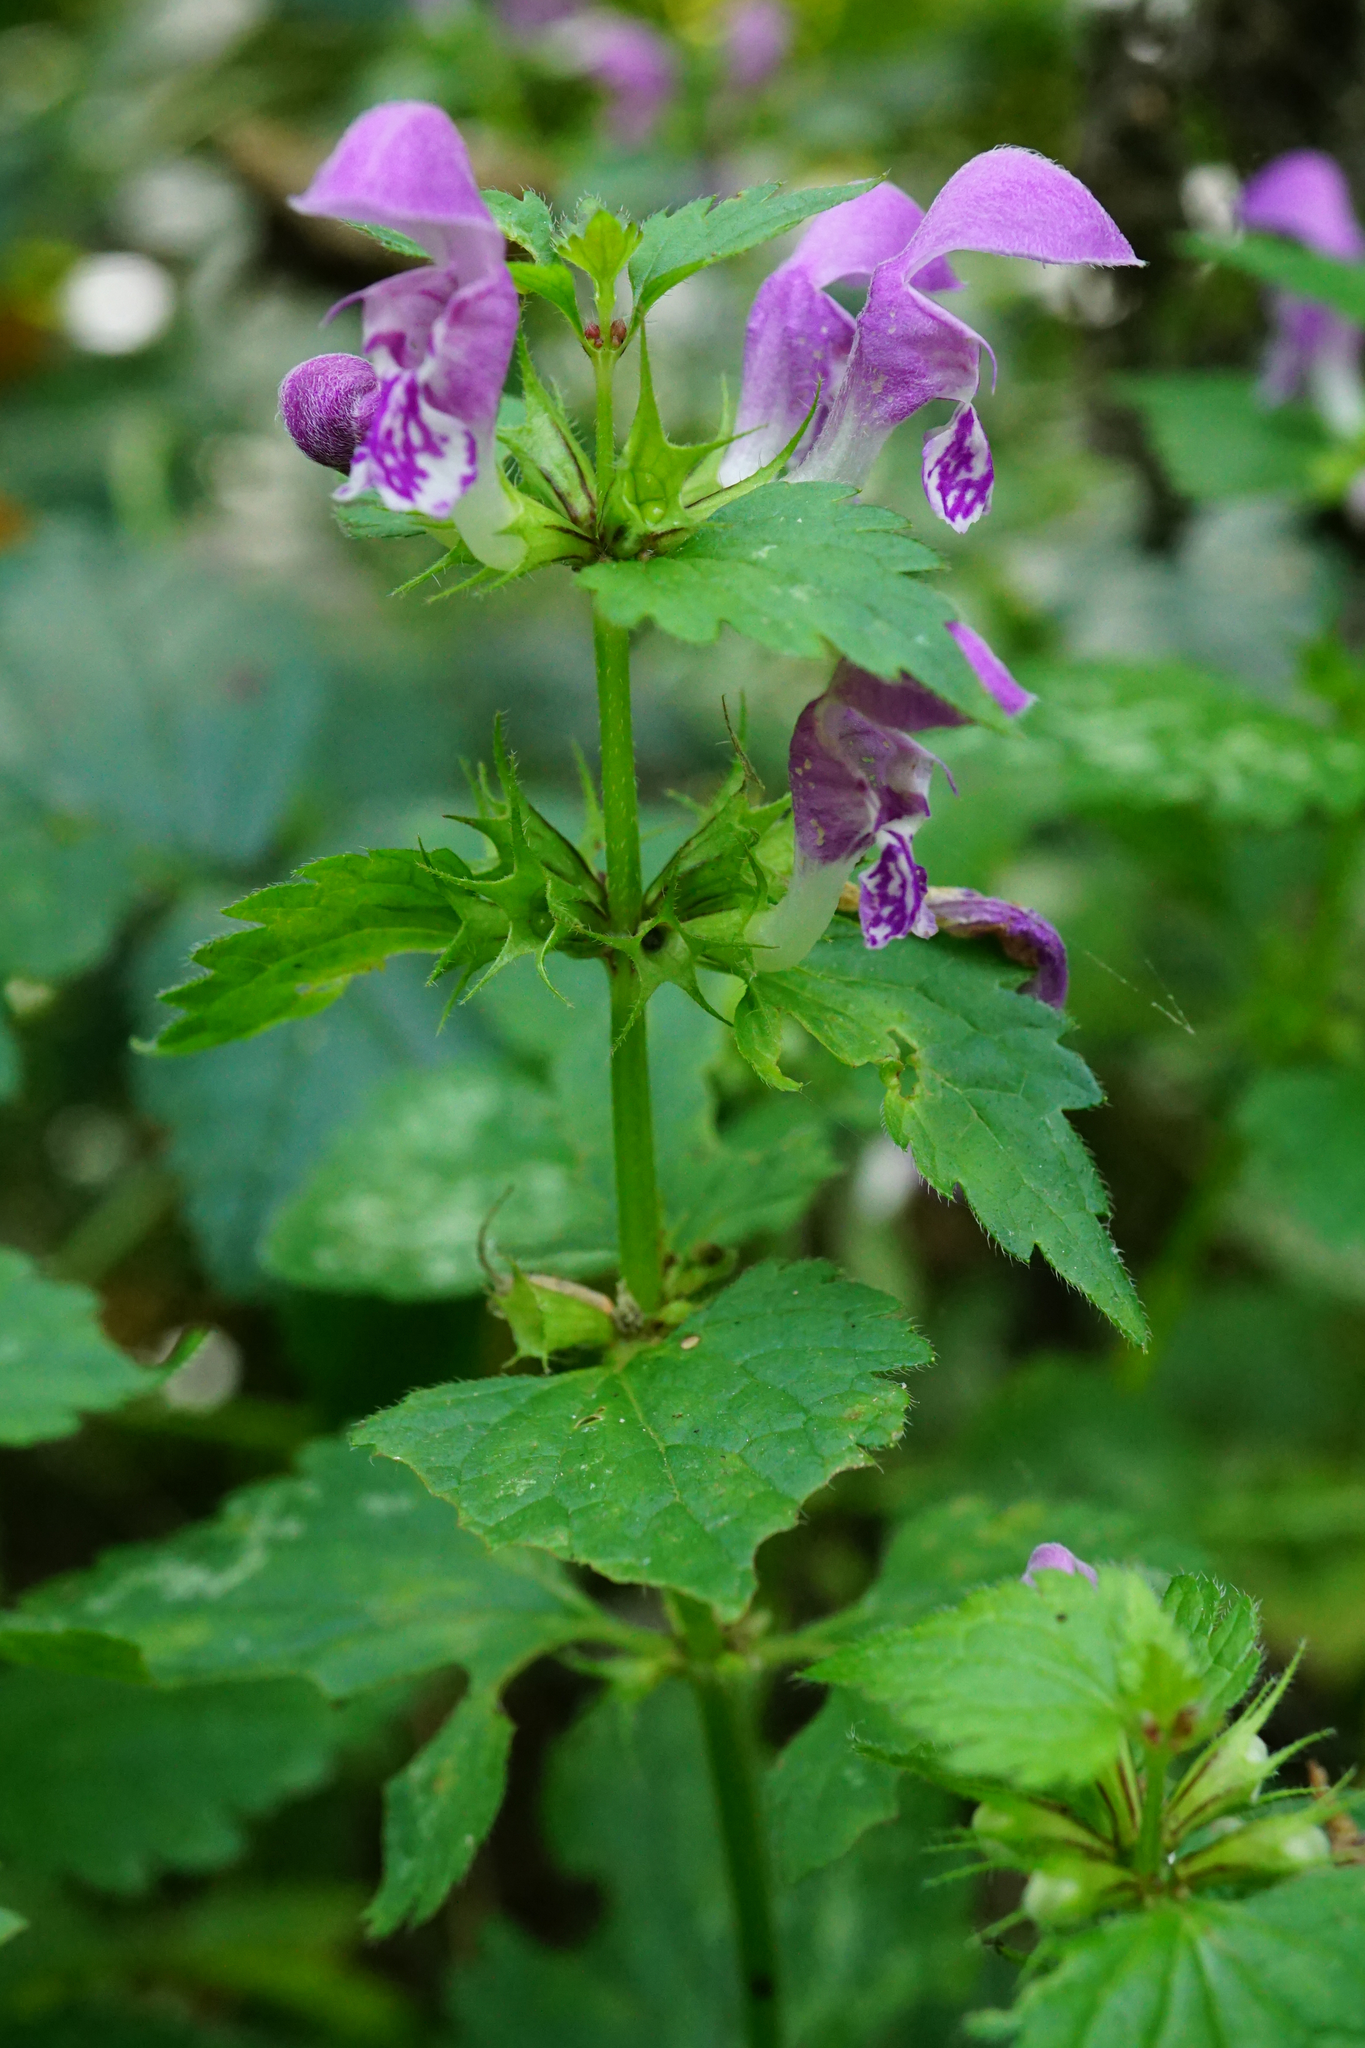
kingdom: Plantae
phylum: Tracheophyta
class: Magnoliopsida
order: Lamiales
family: Lamiaceae
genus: Lamium
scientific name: Lamium maculatum
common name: Spotted dead-nettle
